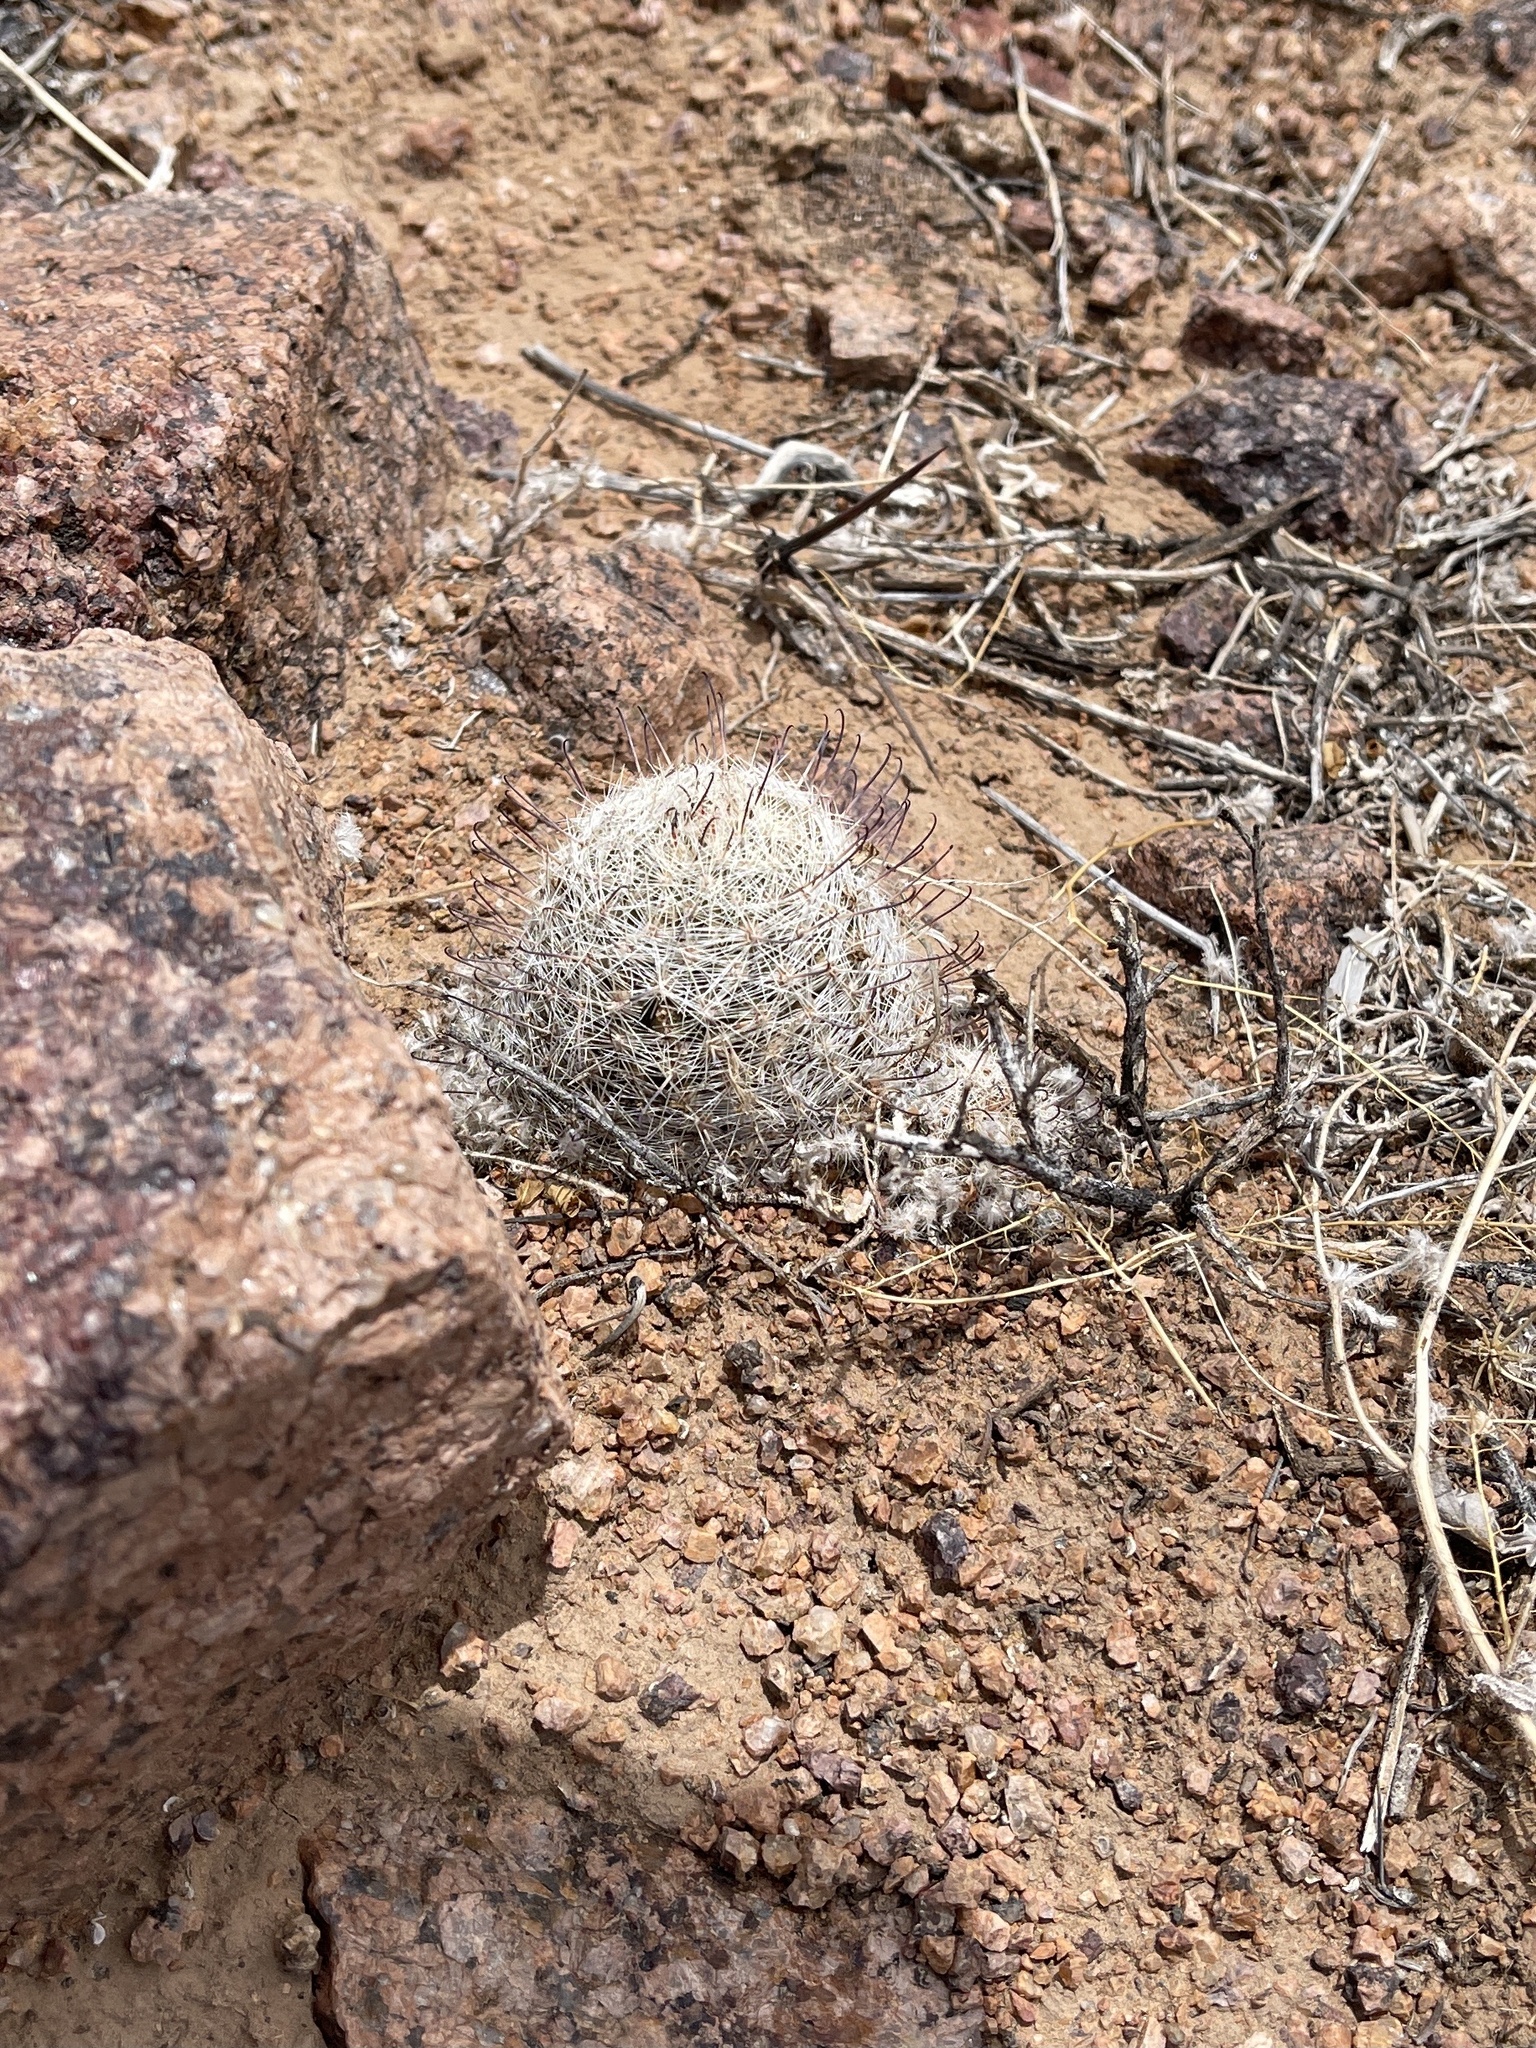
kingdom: Plantae
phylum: Tracheophyta
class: Magnoliopsida
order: Caryophyllales
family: Cactaceae
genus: Cochemiea
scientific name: Cochemiea grahamii
